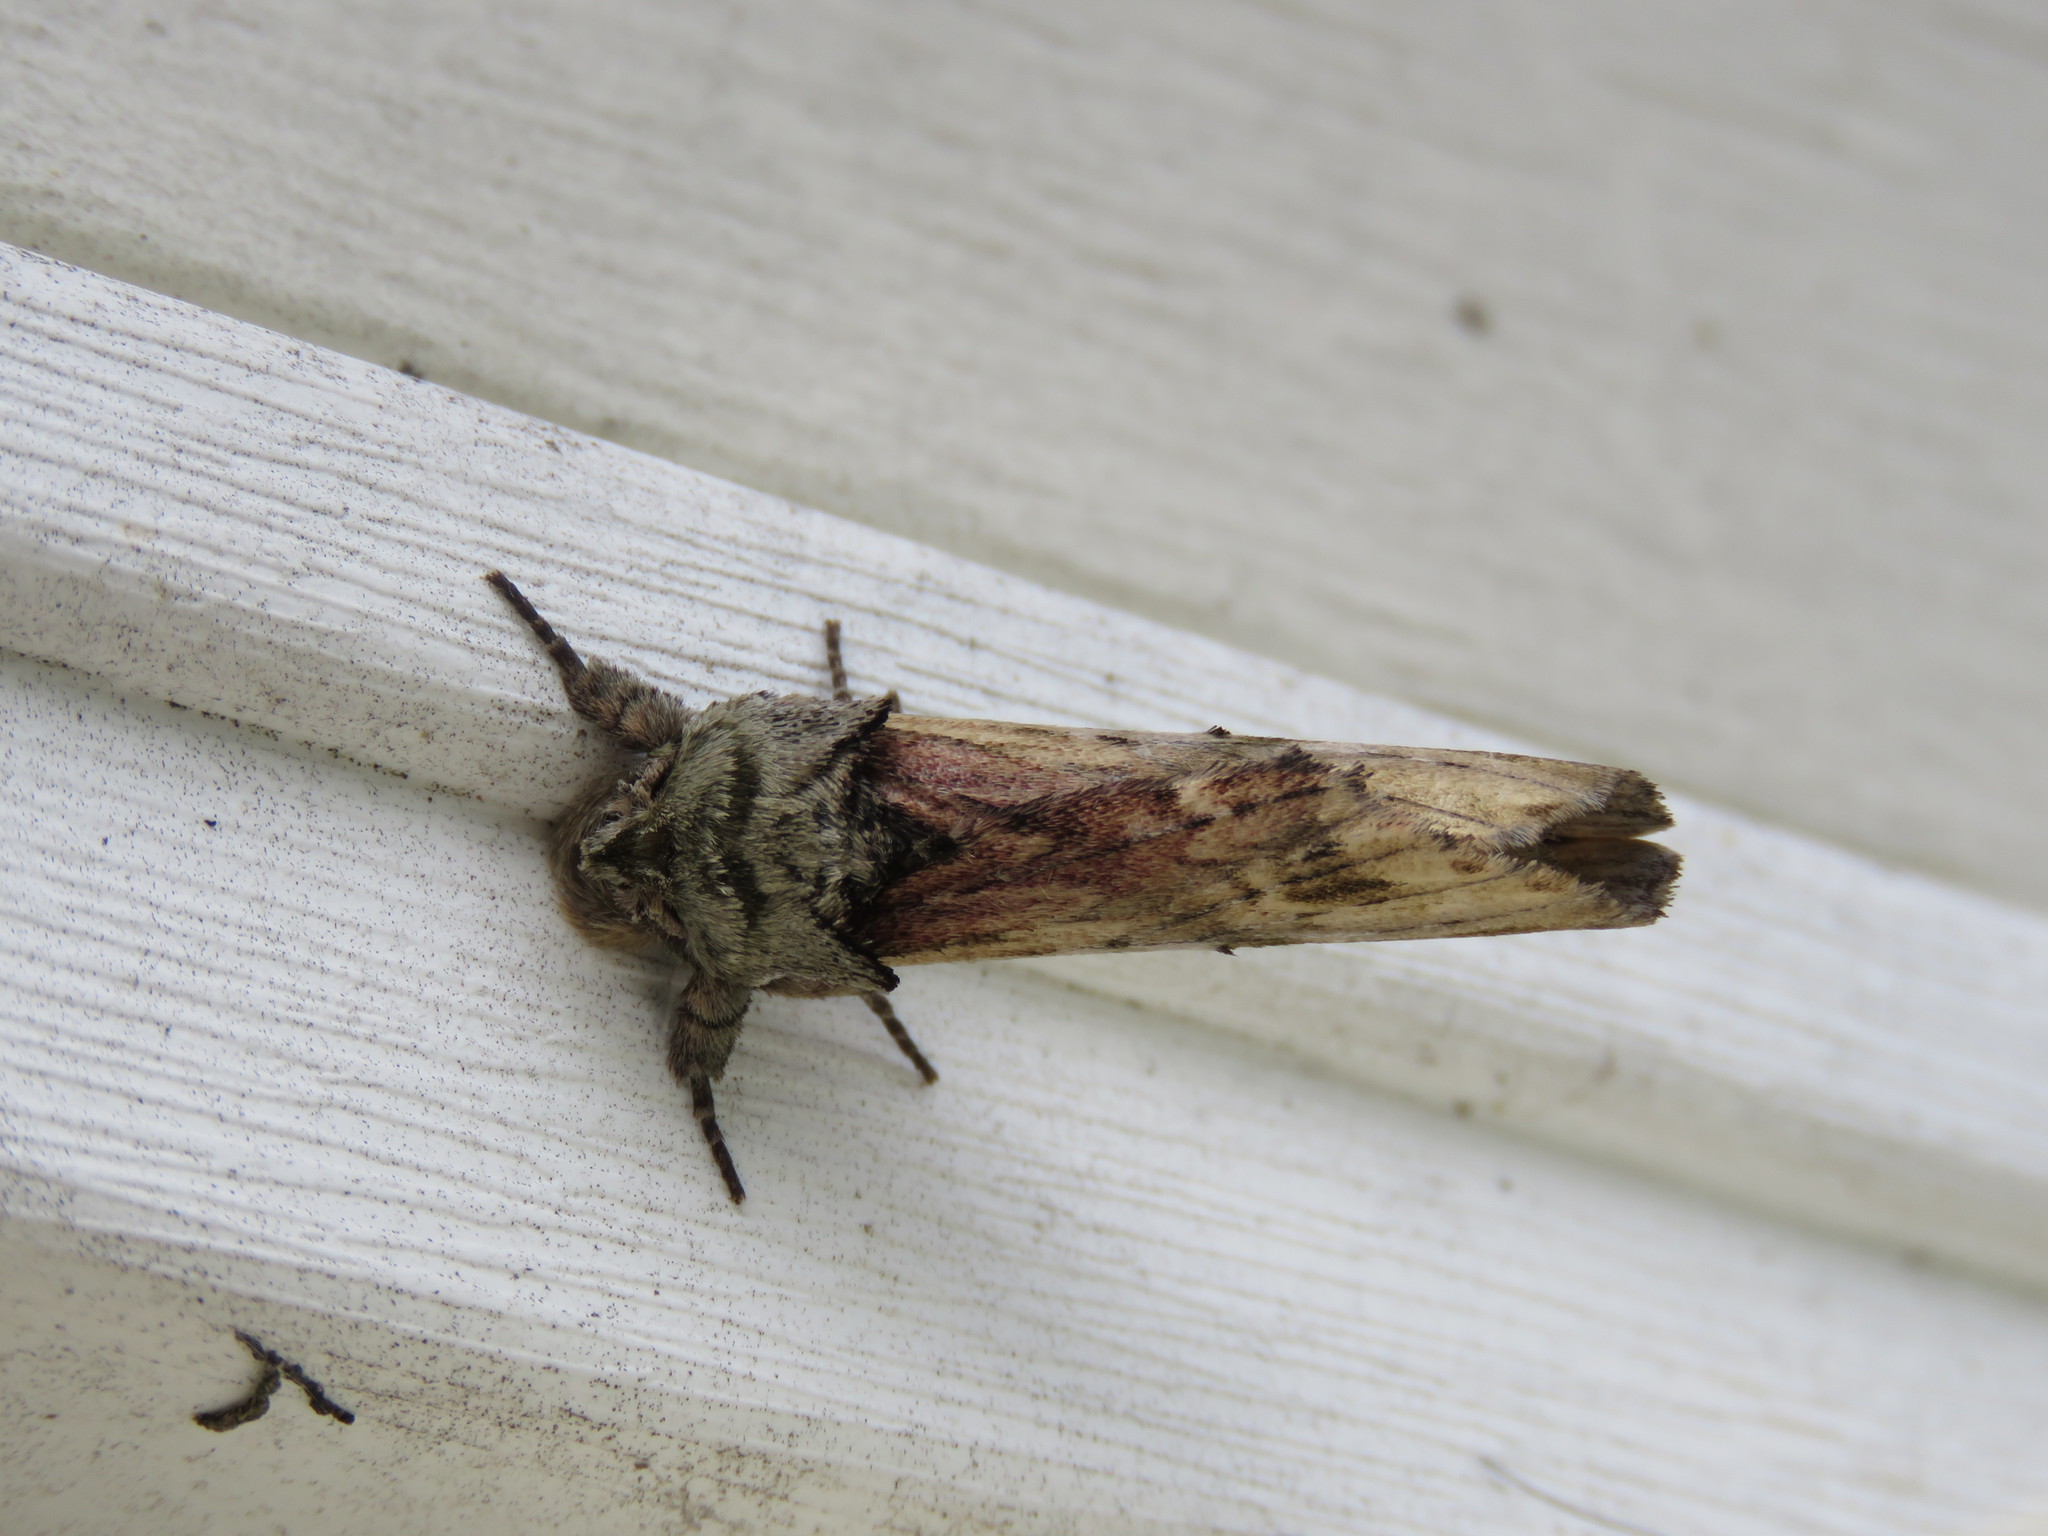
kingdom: Animalia
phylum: Arthropoda
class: Insecta
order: Lepidoptera
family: Notodontidae
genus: Schizura
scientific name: Schizura
